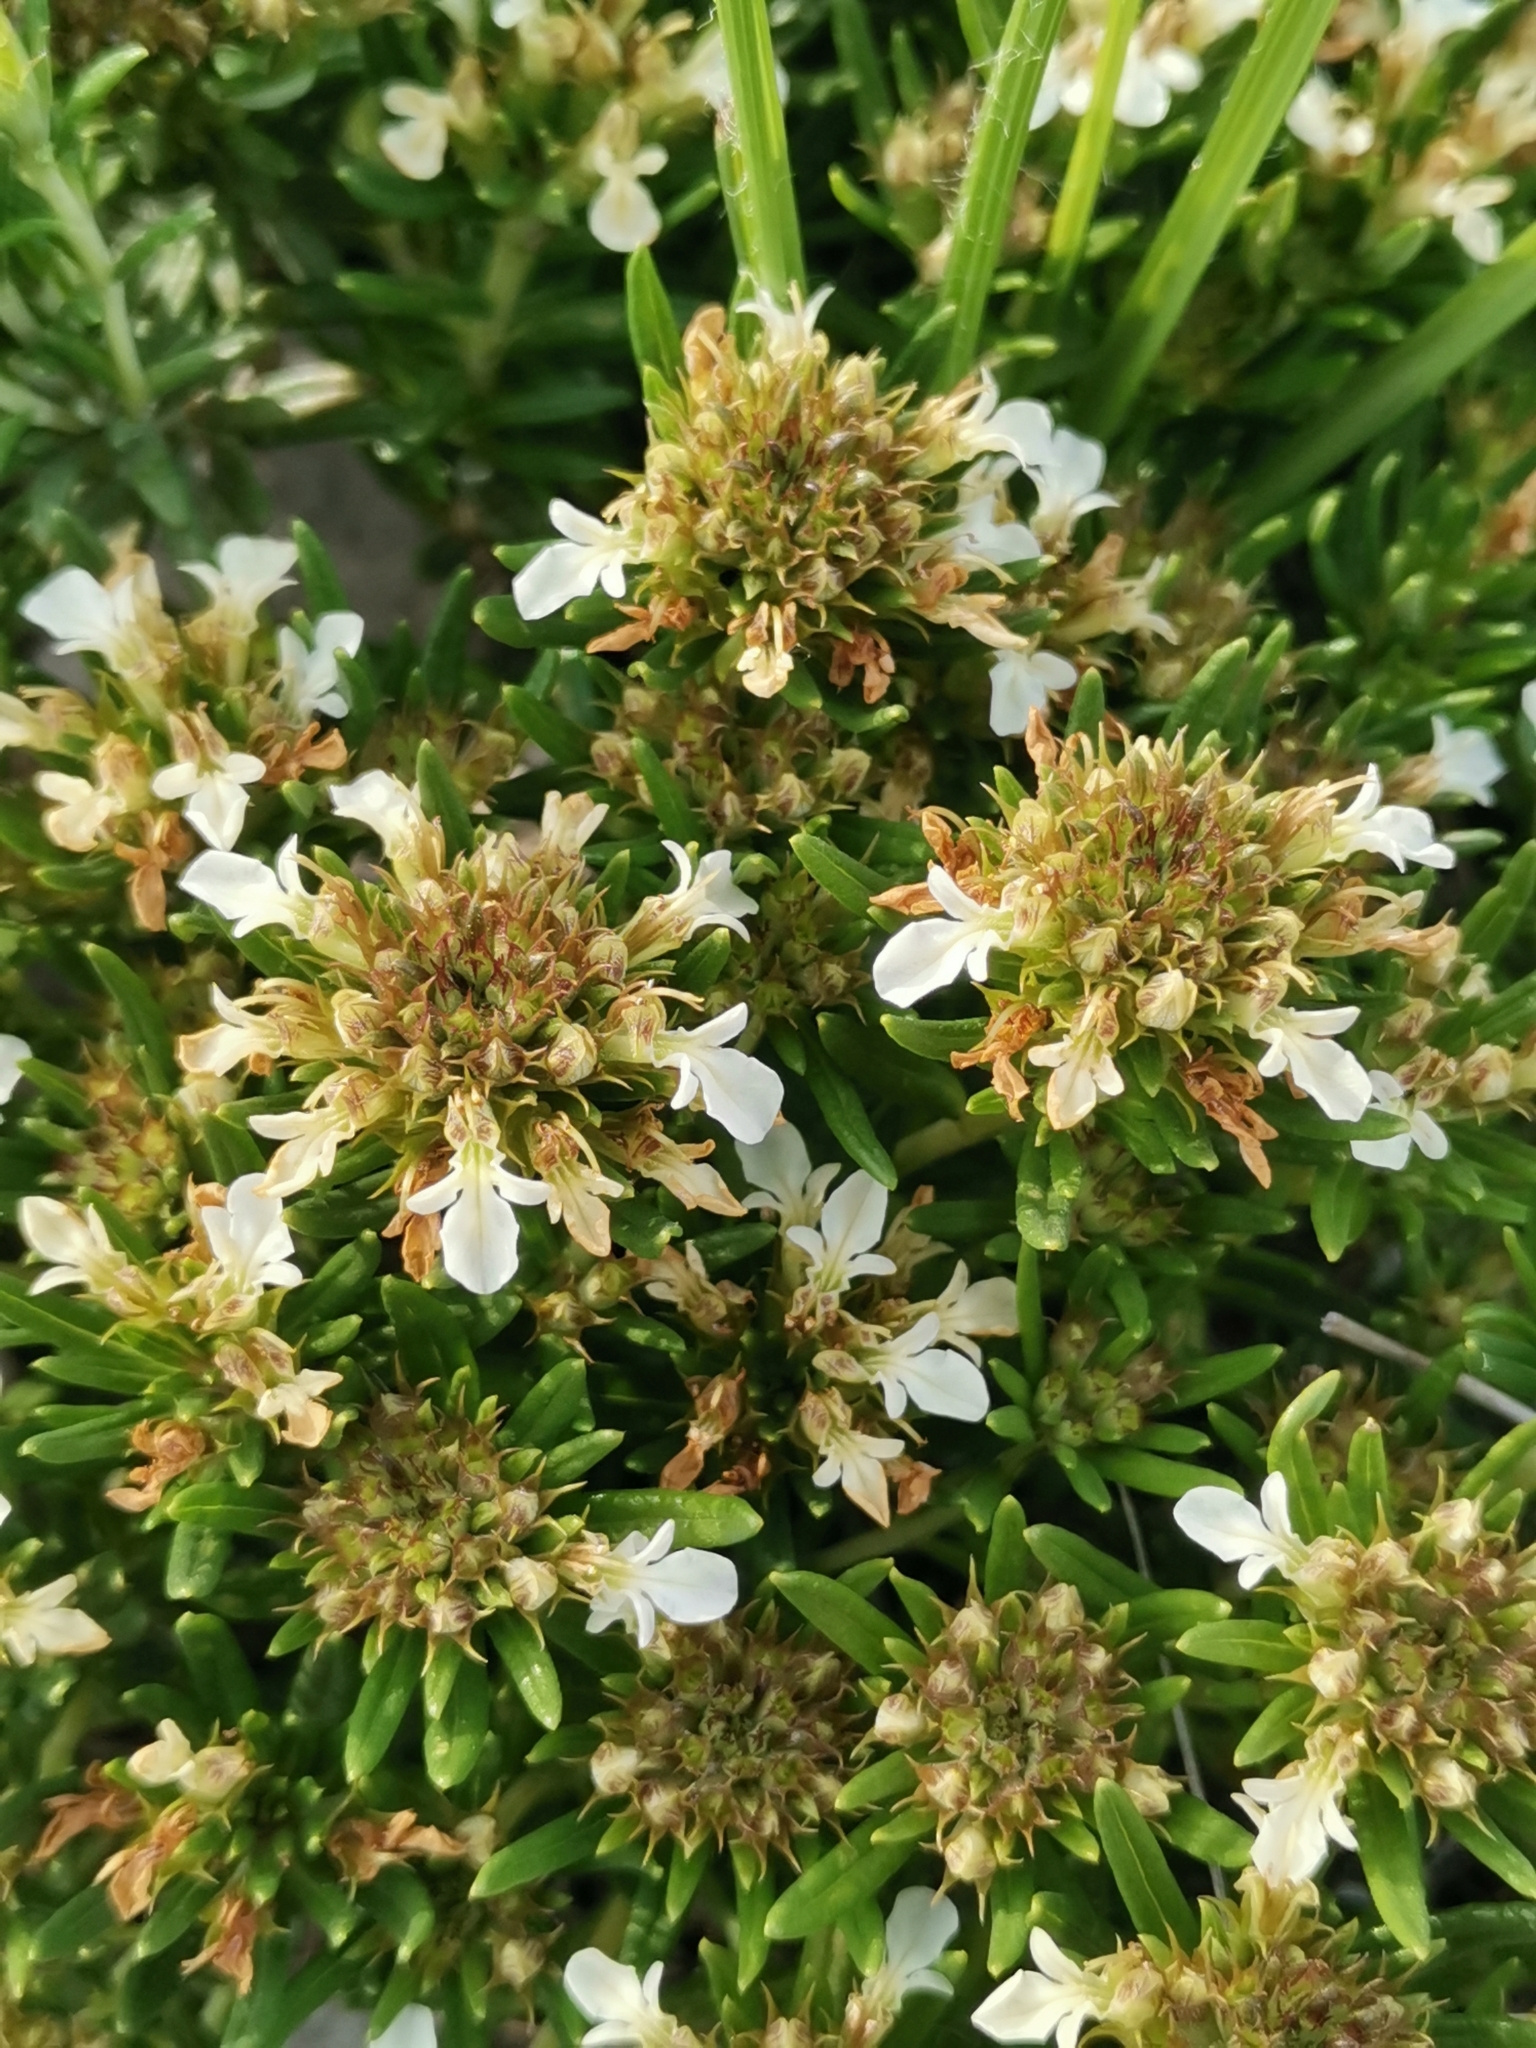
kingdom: Plantae
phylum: Tracheophyta
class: Magnoliopsida
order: Lamiales
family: Lamiaceae
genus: Teucrium
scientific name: Teucrium montanum
